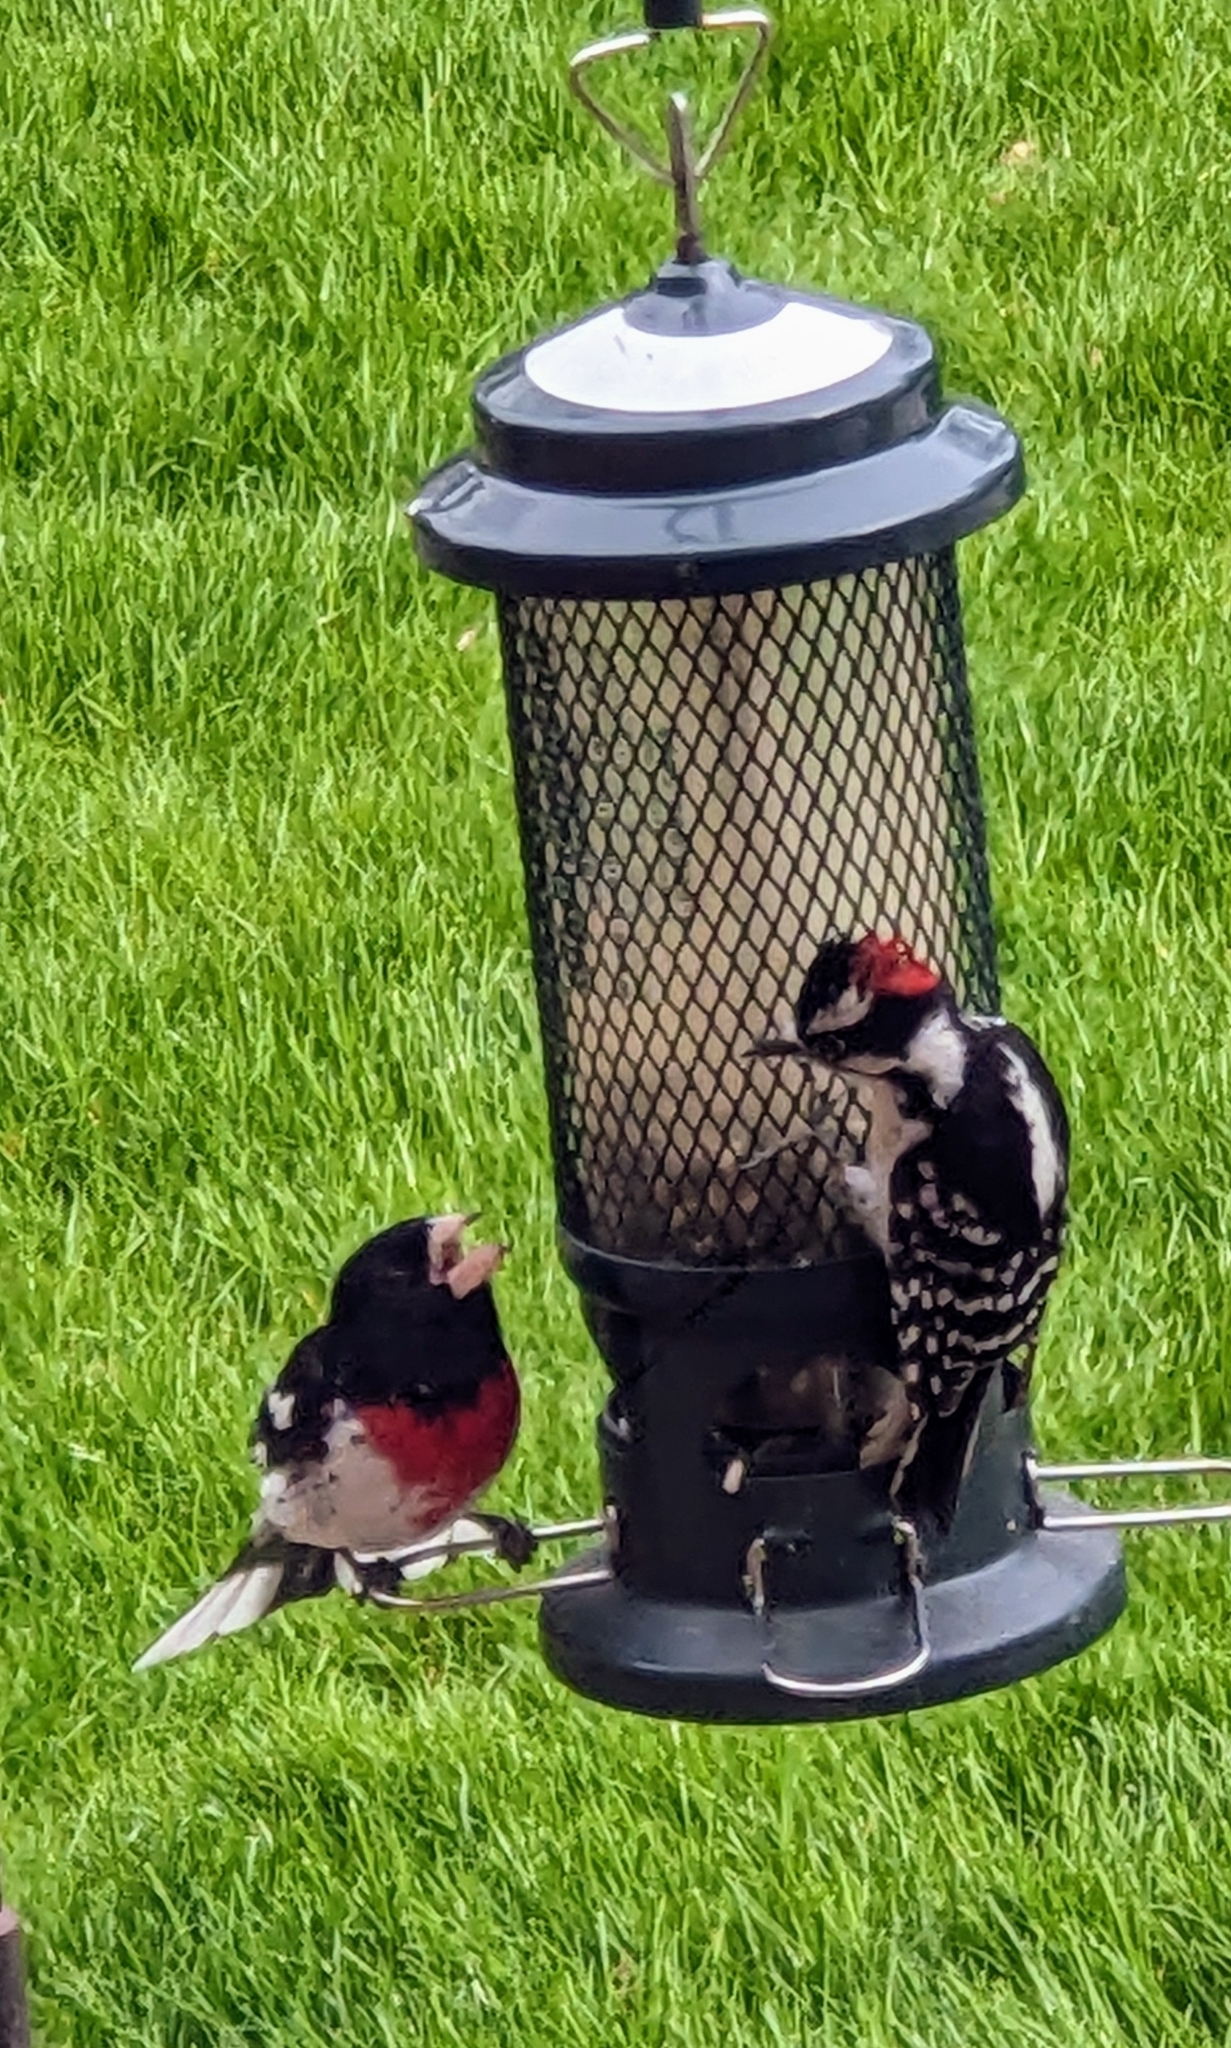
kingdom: Animalia
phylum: Chordata
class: Aves
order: Passeriformes
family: Cardinalidae
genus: Pheucticus
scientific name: Pheucticus ludovicianus
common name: Rose-breasted grosbeak
